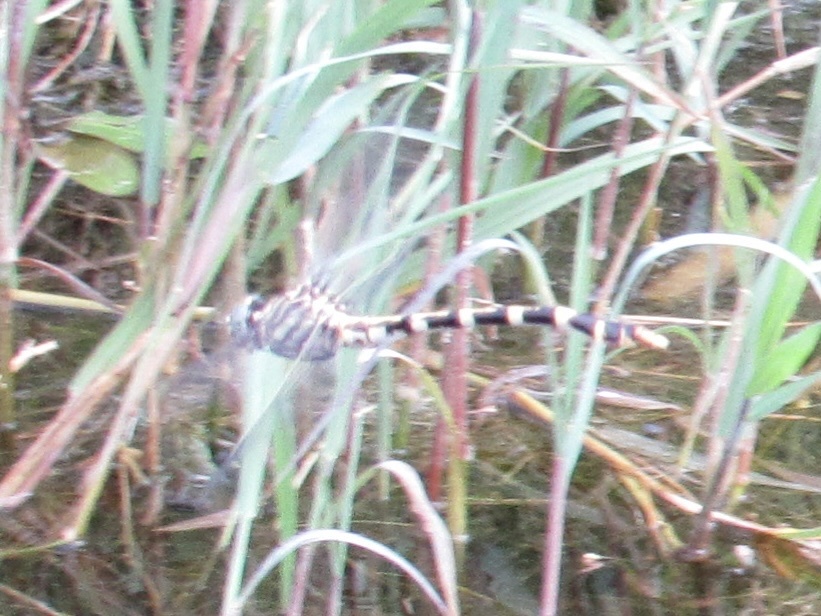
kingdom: Animalia
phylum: Arthropoda
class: Insecta
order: Odonata
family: Gomphidae
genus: Phyllogomphoides
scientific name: Phyllogomphoides stigmatus
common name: Four-striped leaftail
